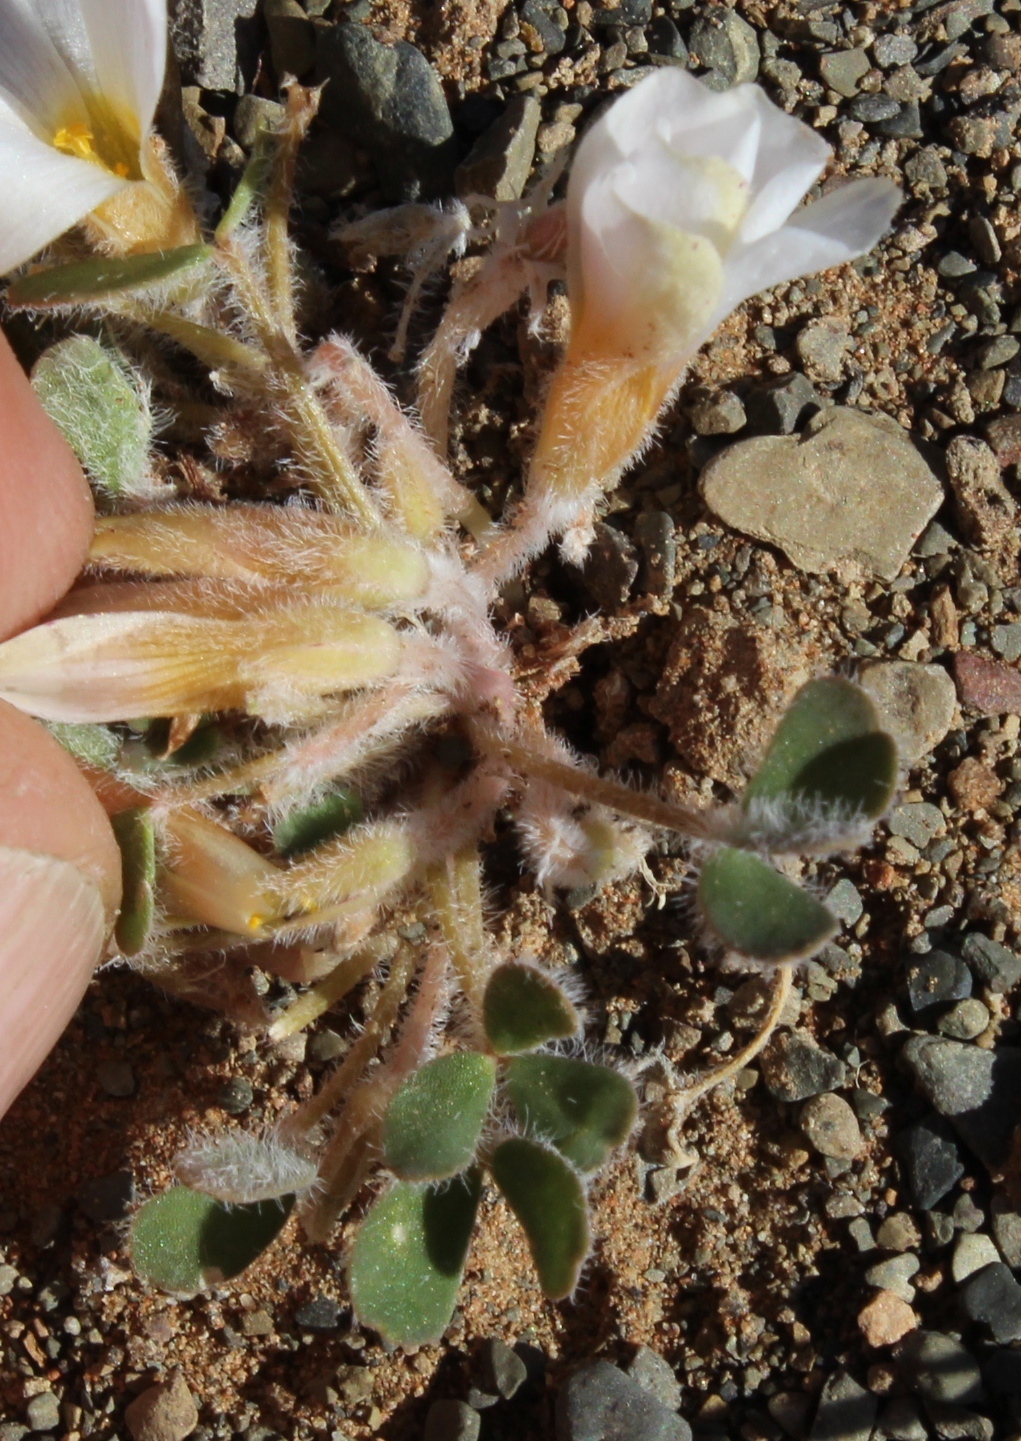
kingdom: Plantae
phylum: Tracheophyta
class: Magnoliopsida
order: Oxalidales
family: Oxalidaceae
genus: Oxalis
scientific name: Oxalis annae
